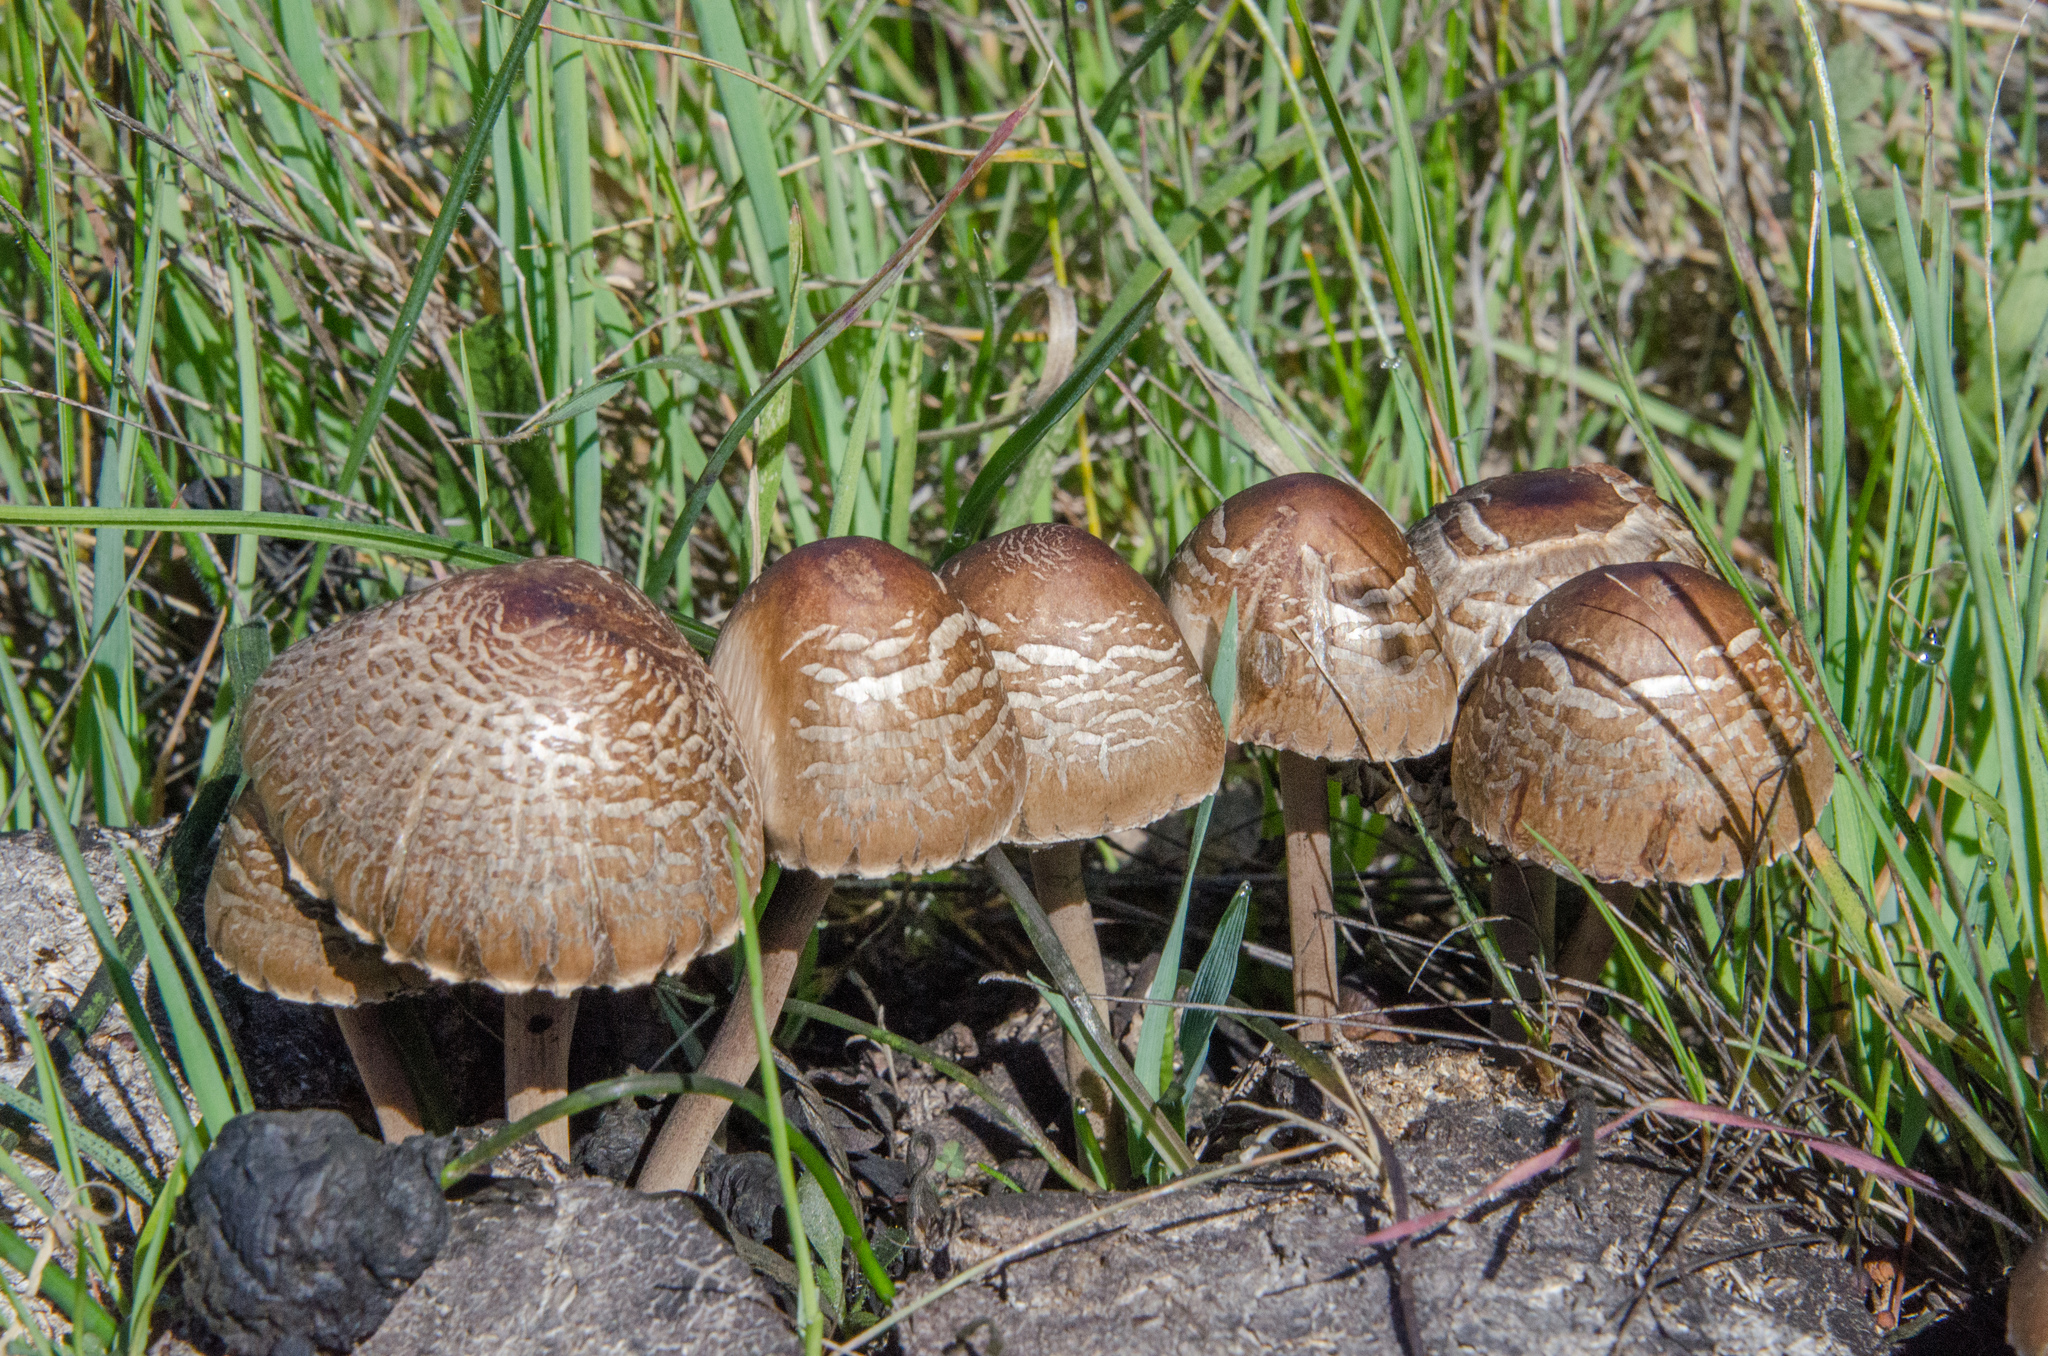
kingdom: Fungi
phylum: Basidiomycota
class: Agaricomycetes
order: Agaricales
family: Bolbitiaceae
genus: Panaeolus
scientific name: Panaeolus papilionaceus
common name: Petticoat mottlegill
